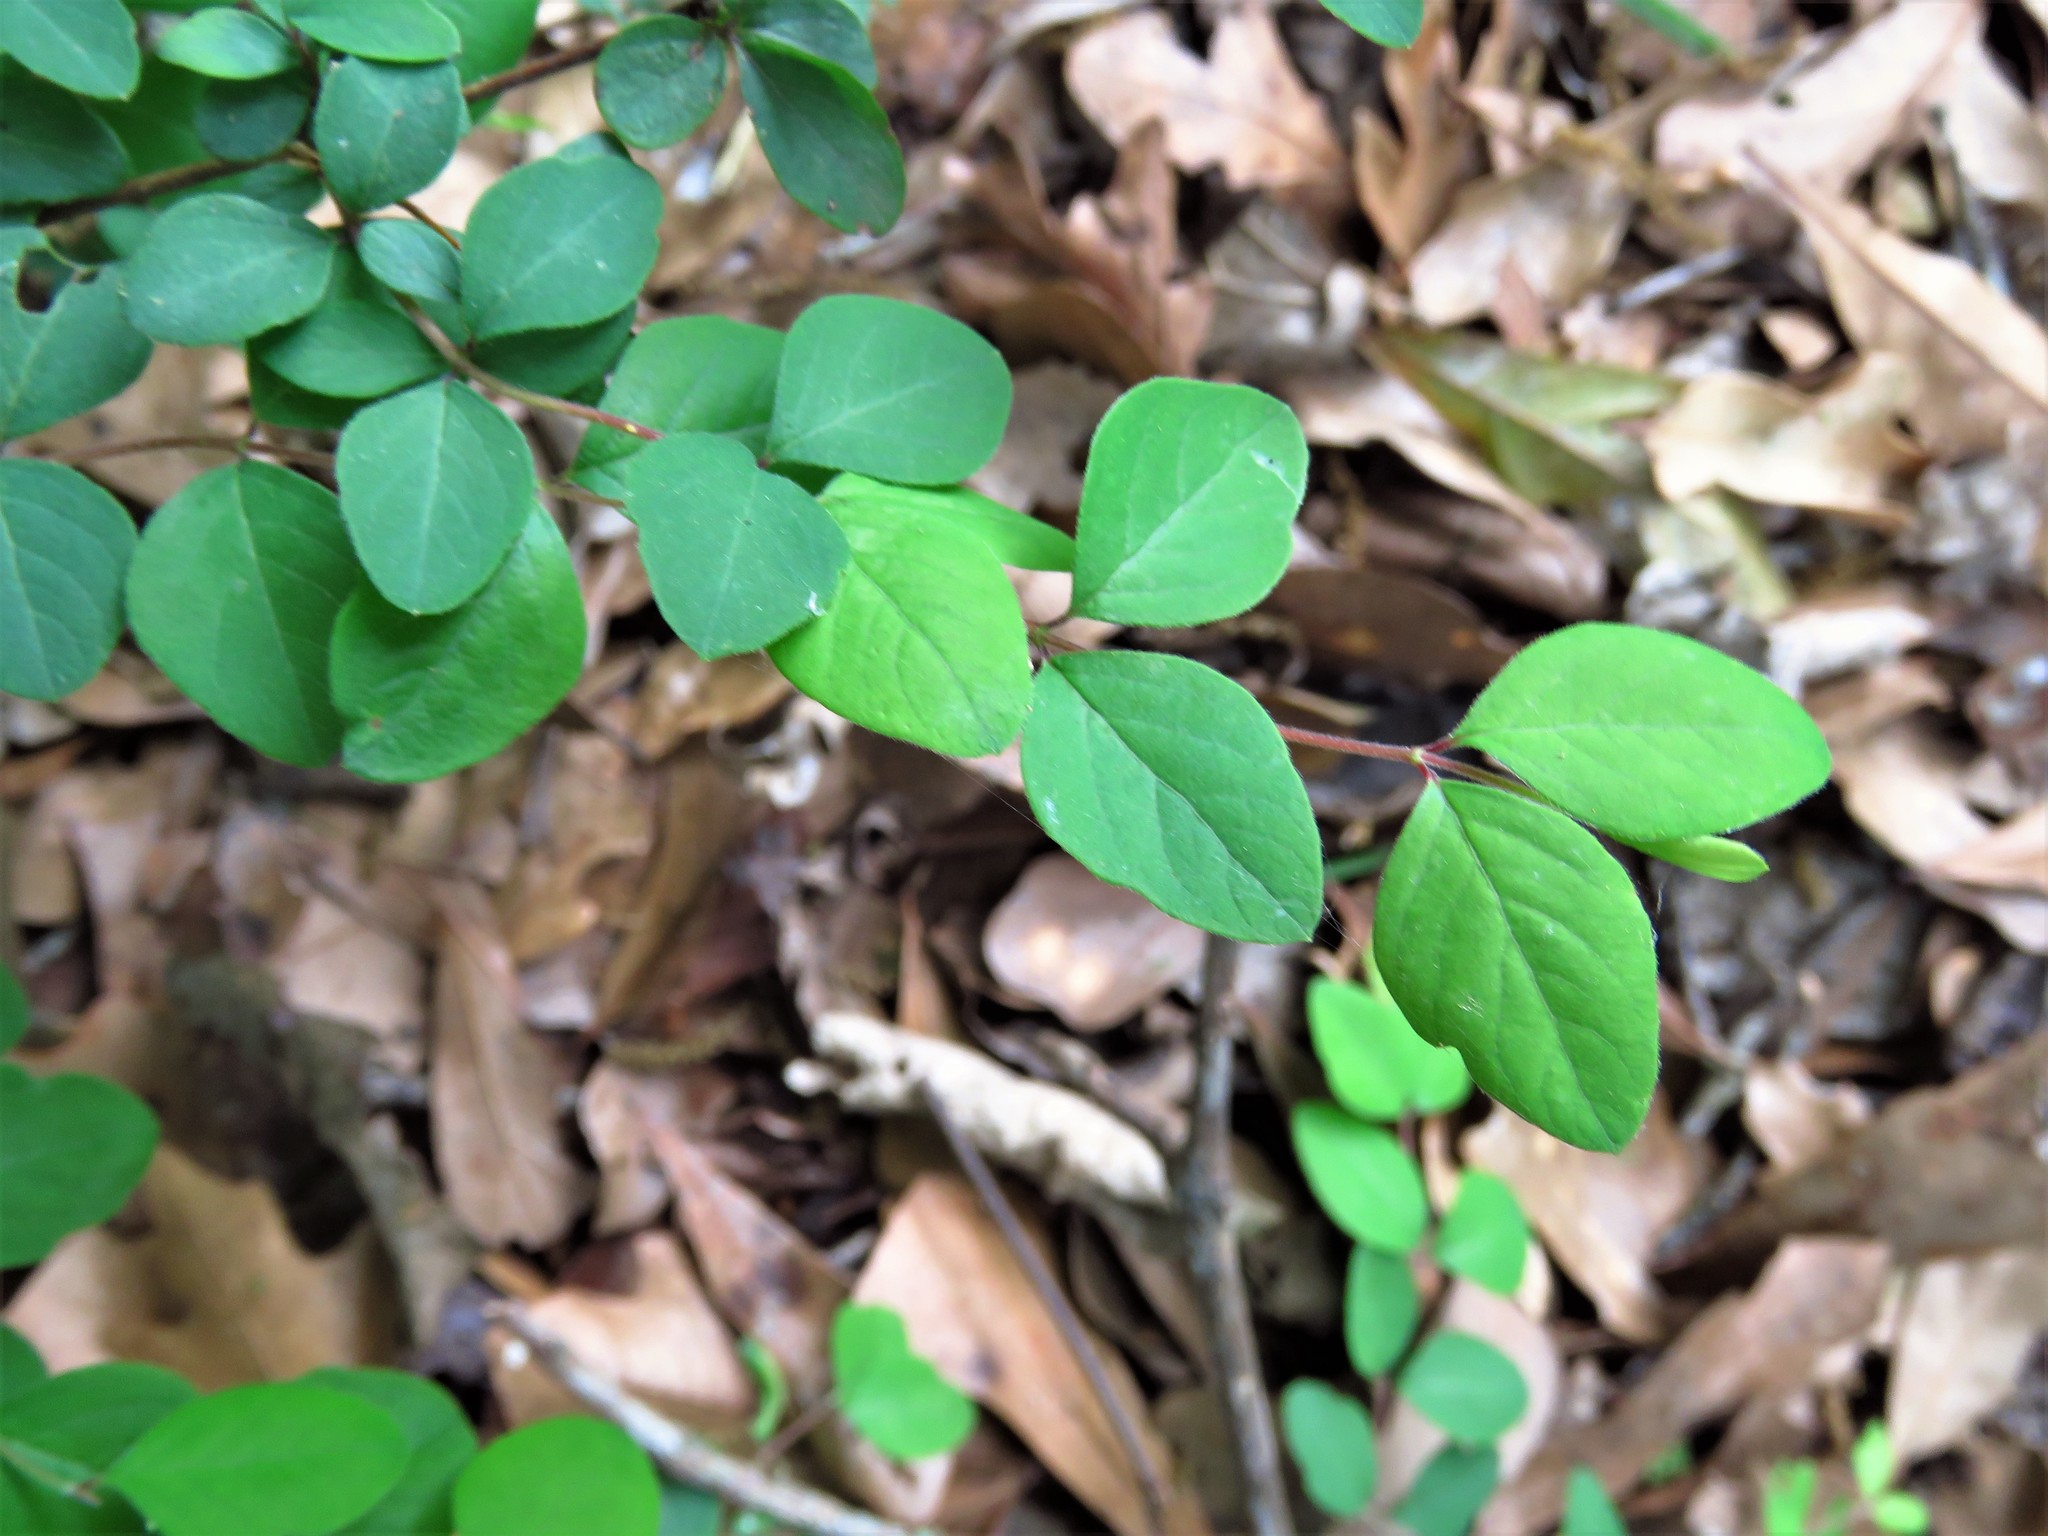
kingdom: Plantae
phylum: Tracheophyta
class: Magnoliopsida
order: Dipsacales
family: Caprifoliaceae
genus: Symphoricarpos
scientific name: Symphoricarpos orbiculatus
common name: Coralberry
